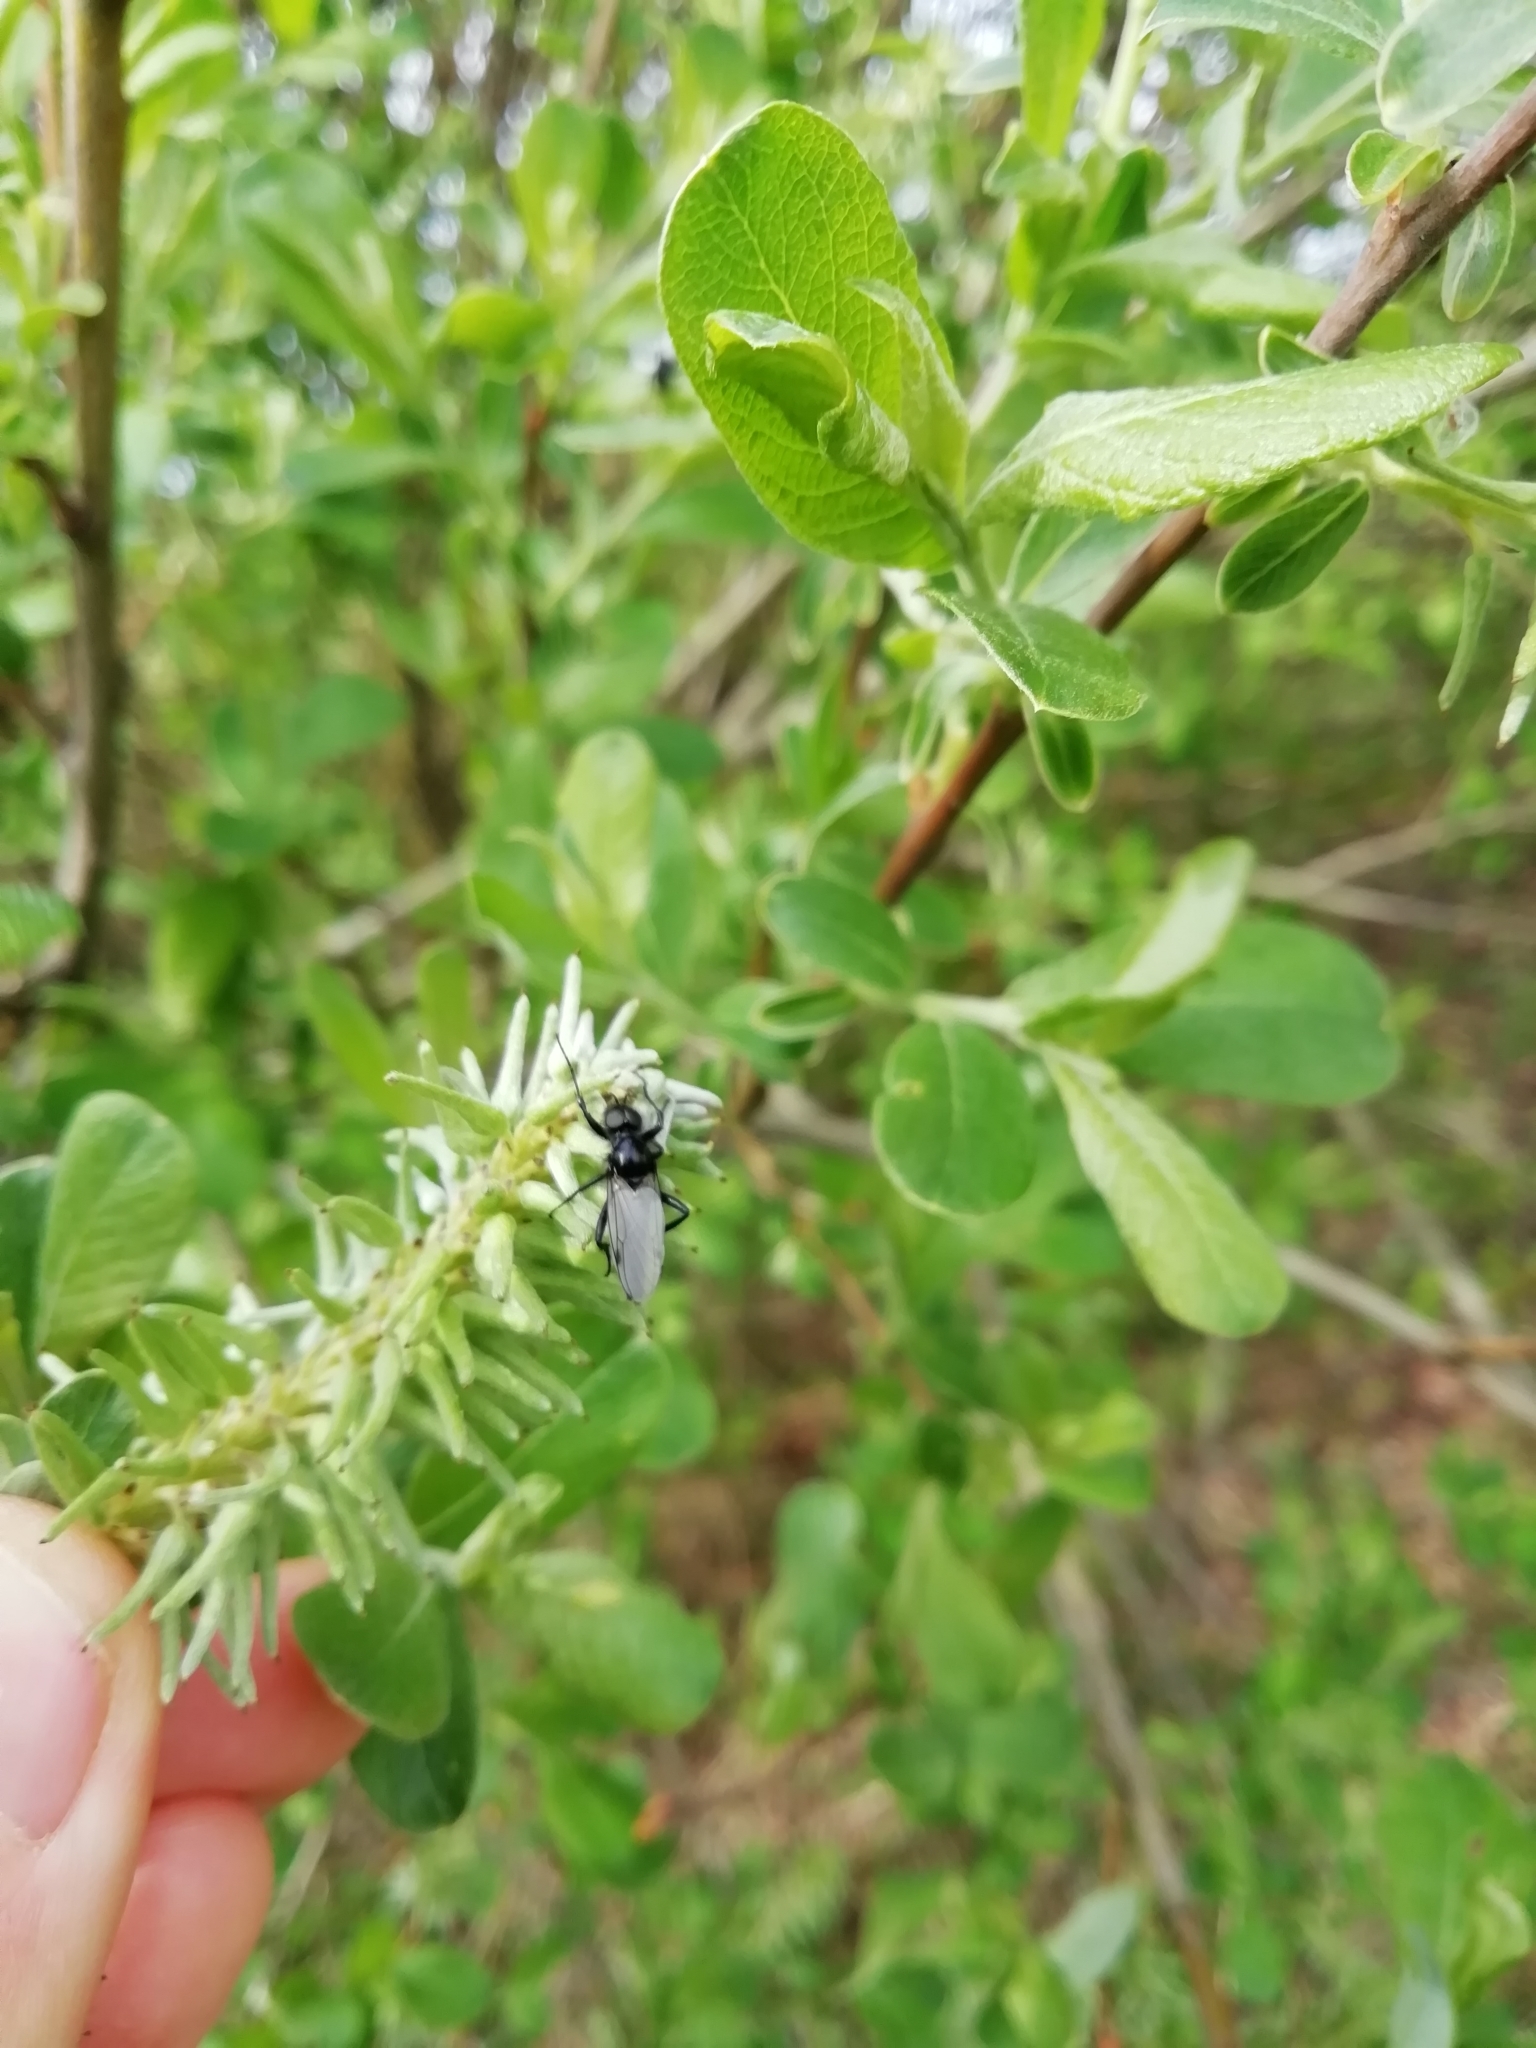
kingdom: Animalia
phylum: Arthropoda
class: Insecta
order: Diptera
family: Bibionidae
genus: Bibio
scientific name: Bibio leucoptera
